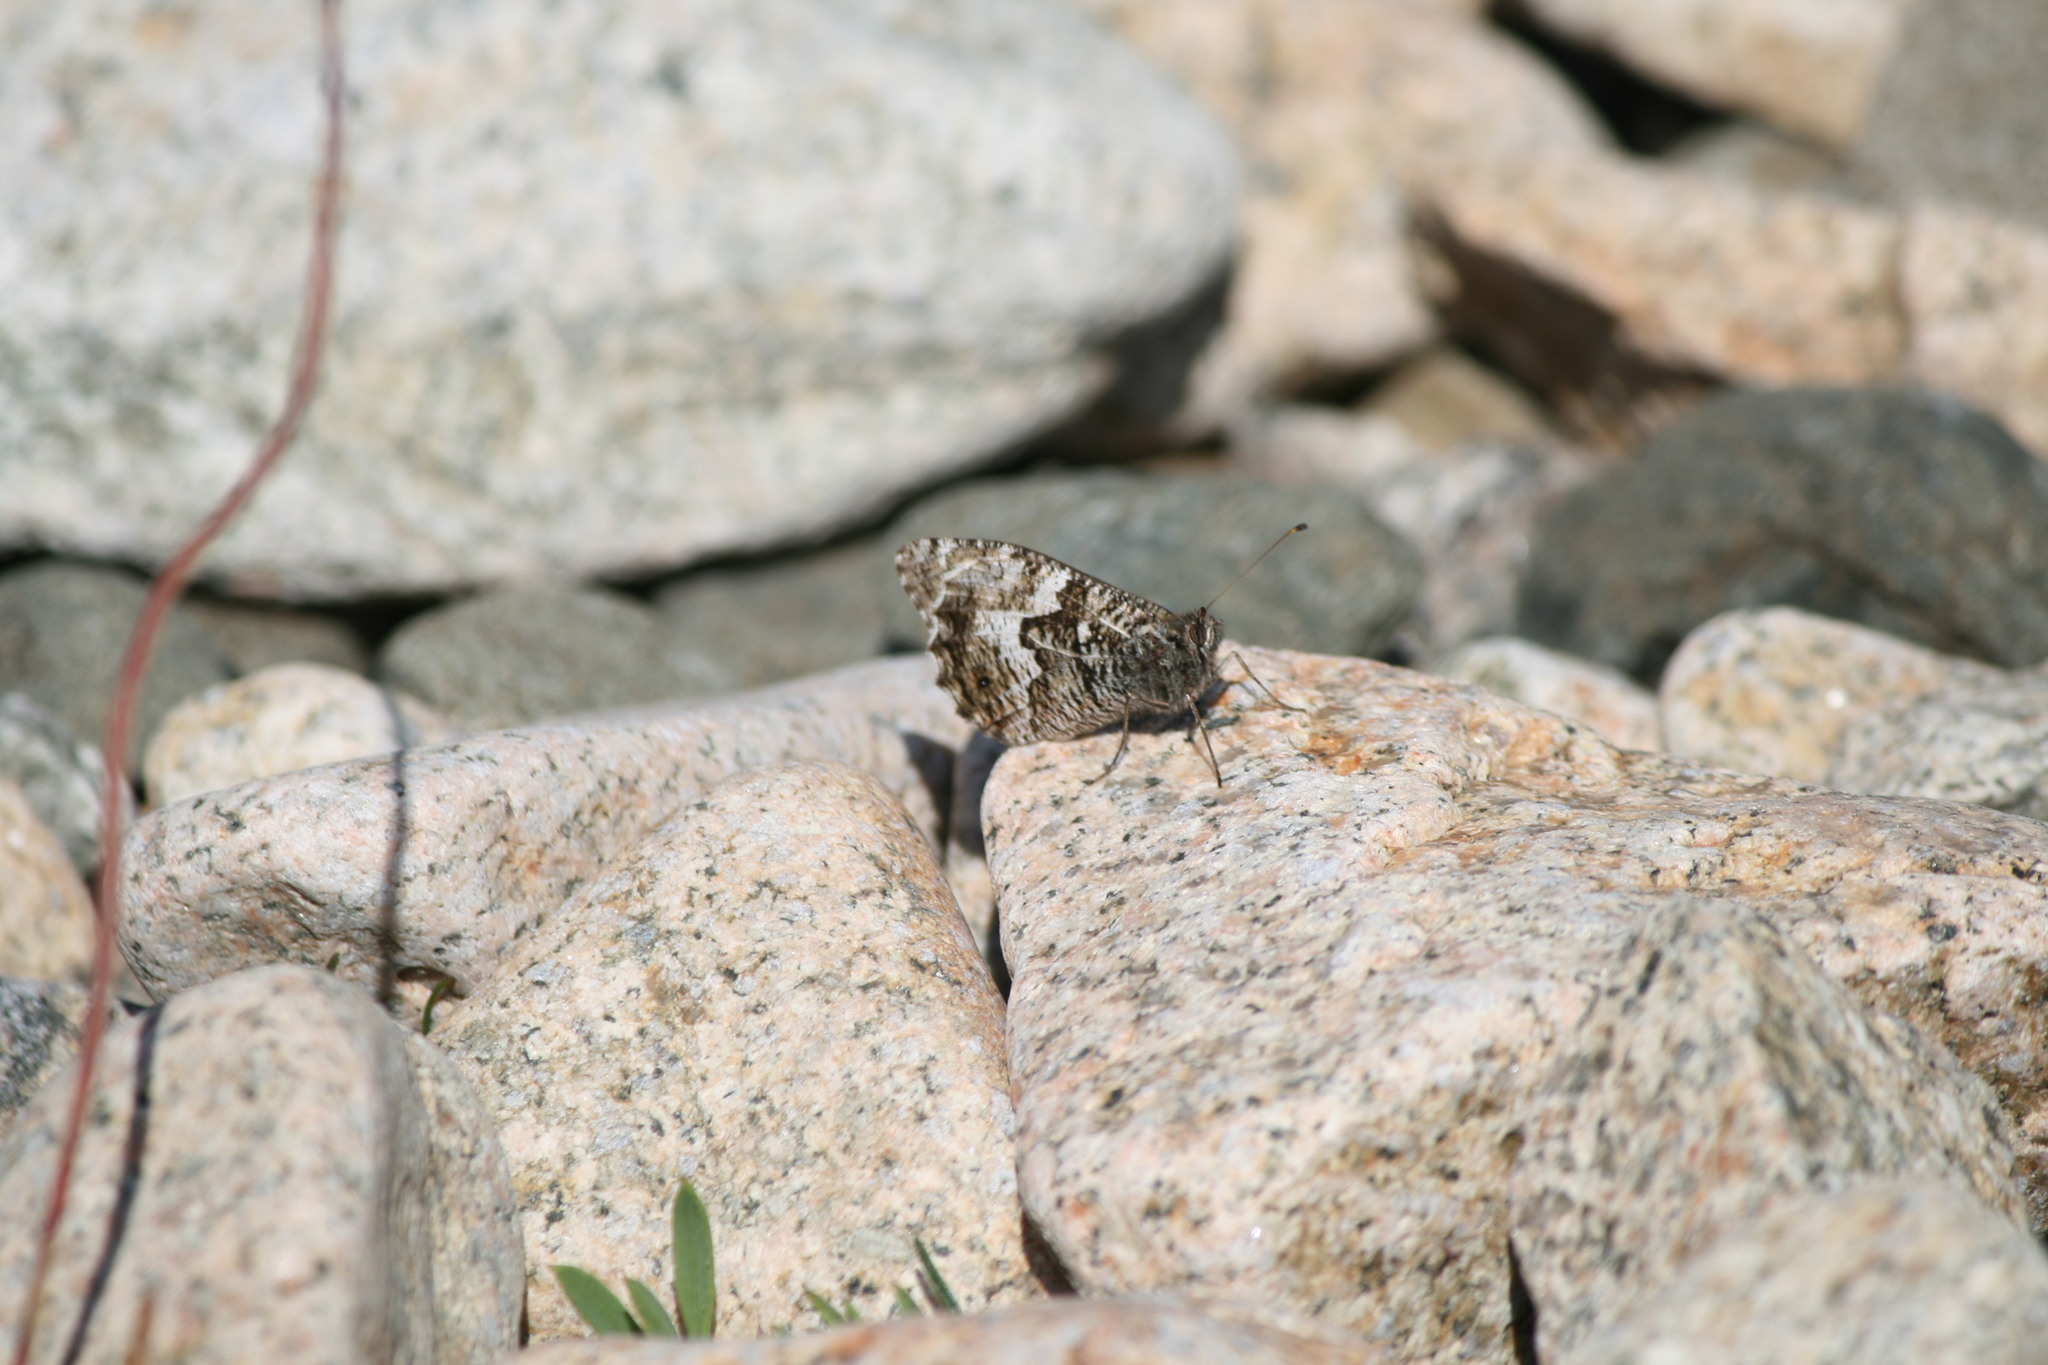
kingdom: Animalia
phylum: Arthropoda
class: Insecta
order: Lepidoptera
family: Nymphalidae
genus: Hipparchia
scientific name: Hipparchia semele
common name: Grayling
